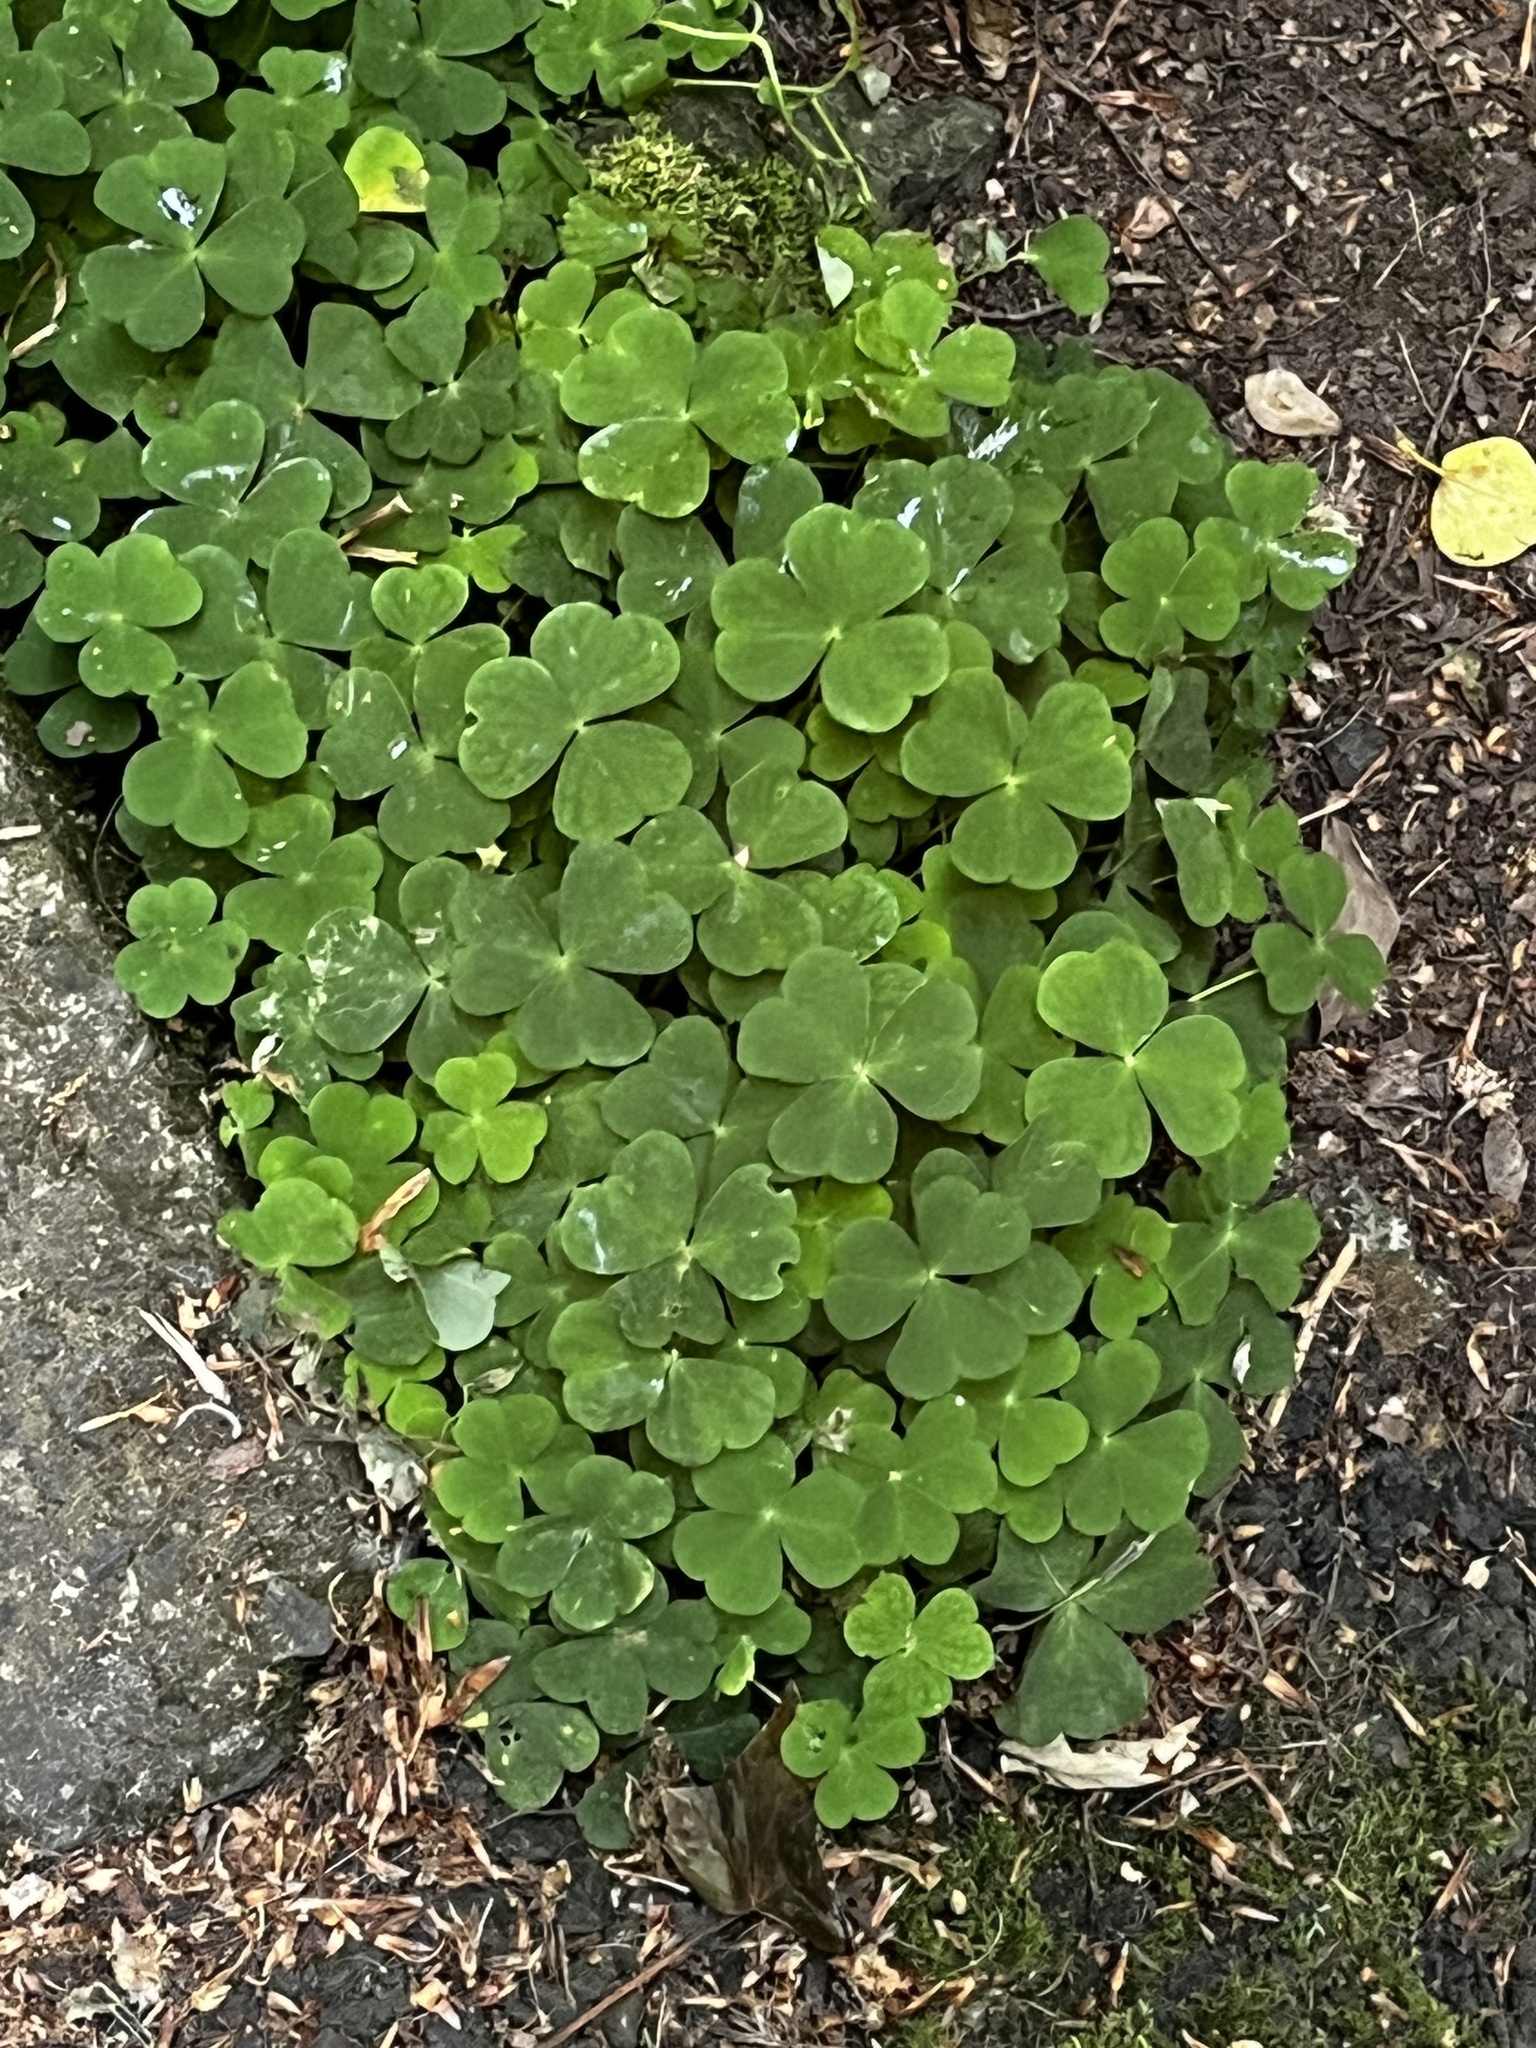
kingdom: Plantae
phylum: Tracheophyta
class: Magnoliopsida
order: Oxalidales
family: Oxalidaceae
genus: Oxalis
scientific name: Oxalis acetosella
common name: Wood-sorrel
